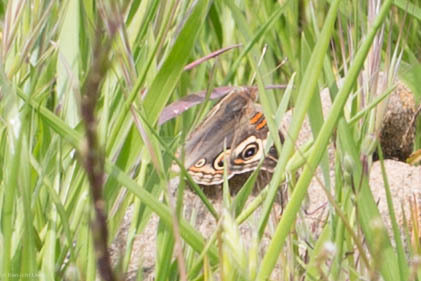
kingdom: Animalia
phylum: Arthropoda
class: Insecta
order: Lepidoptera
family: Nymphalidae
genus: Junonia
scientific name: Junonia grisea
